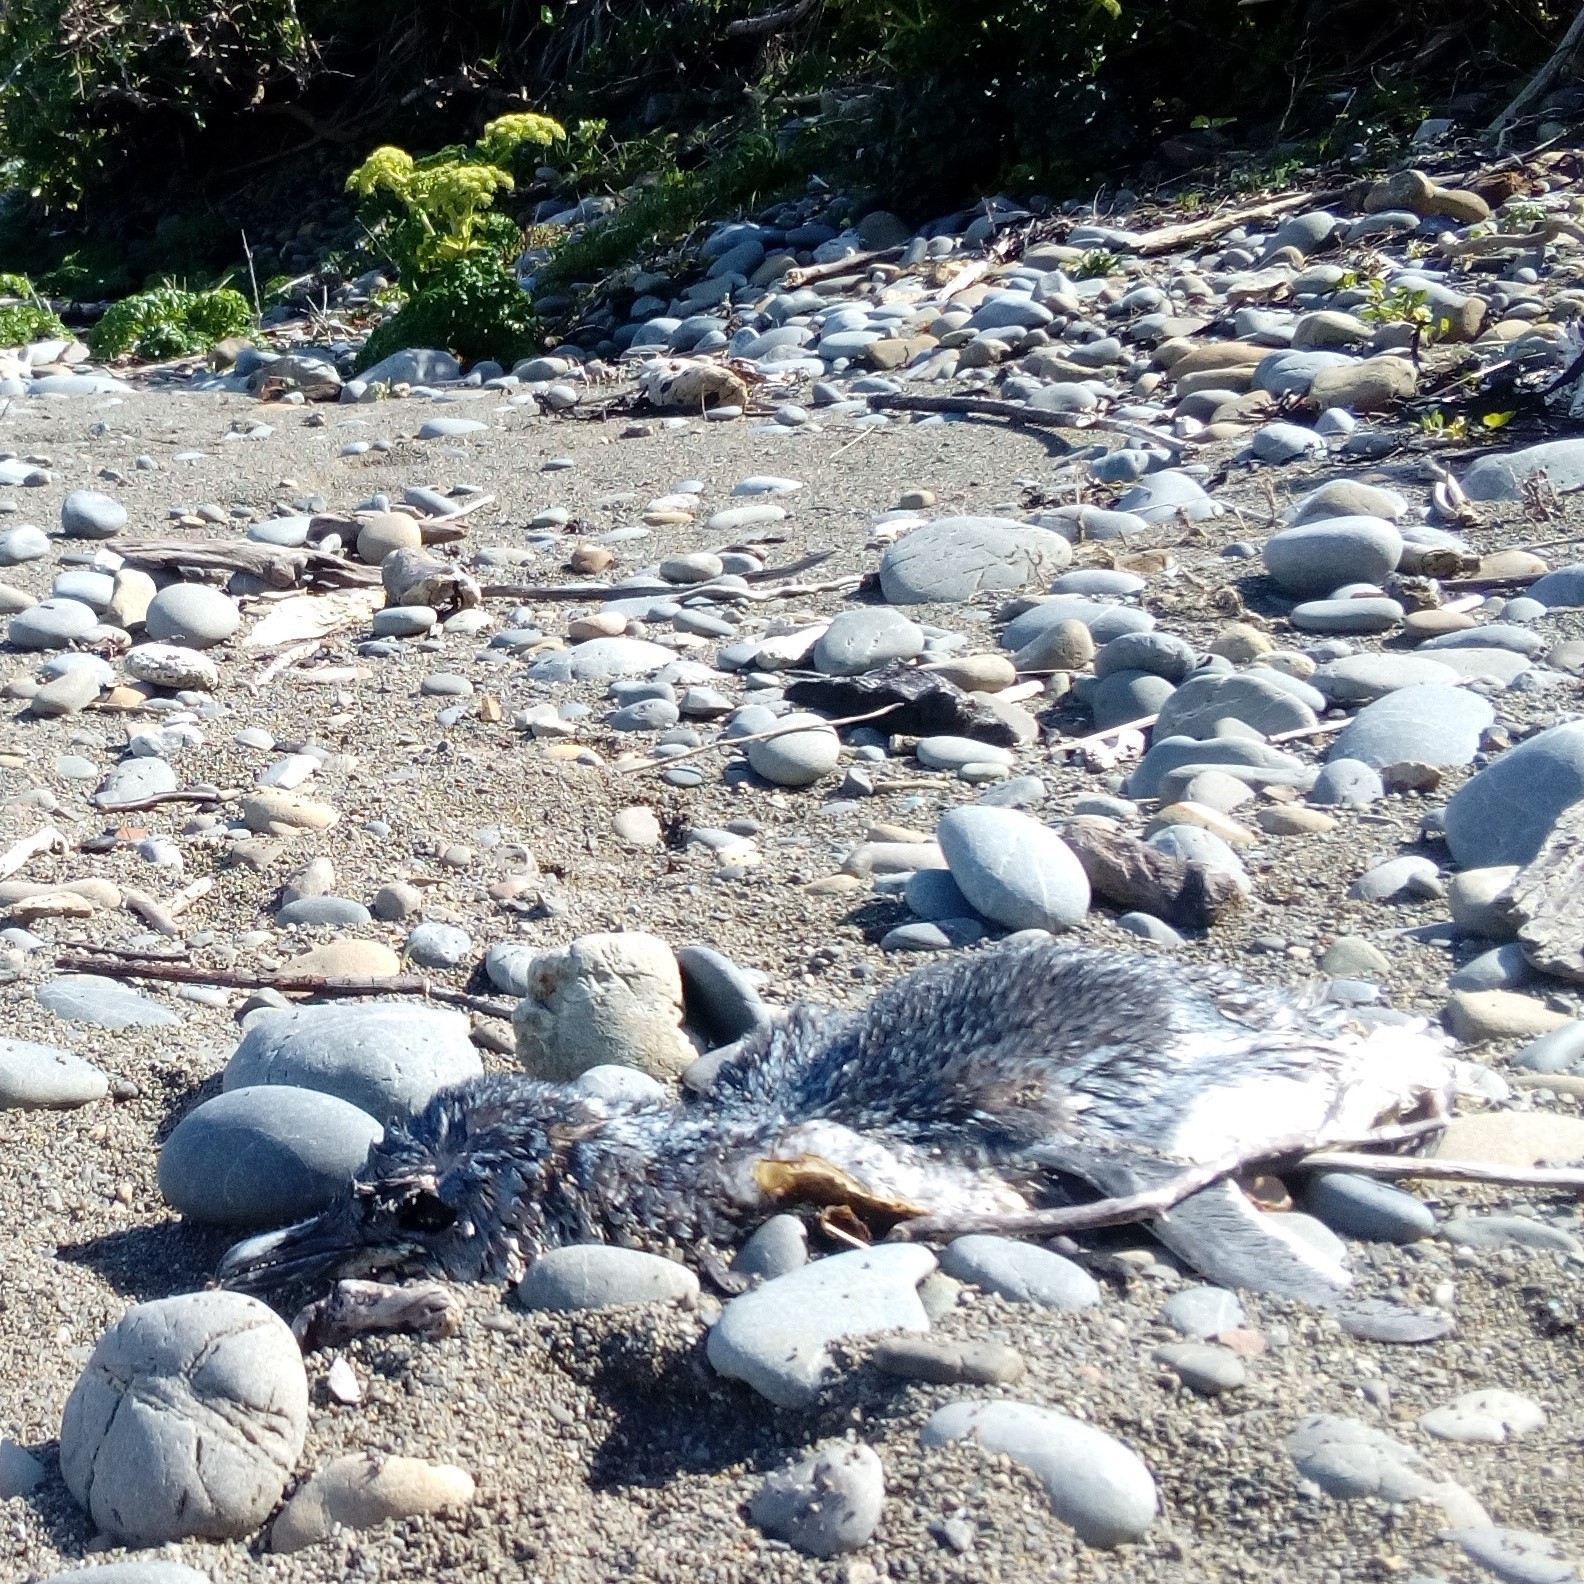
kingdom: Animalia
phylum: Chordata
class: Aves
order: Sphenisciformes
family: Spheniscidae
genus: Eudyptula
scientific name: Eudyptula minor
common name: Little penguin
